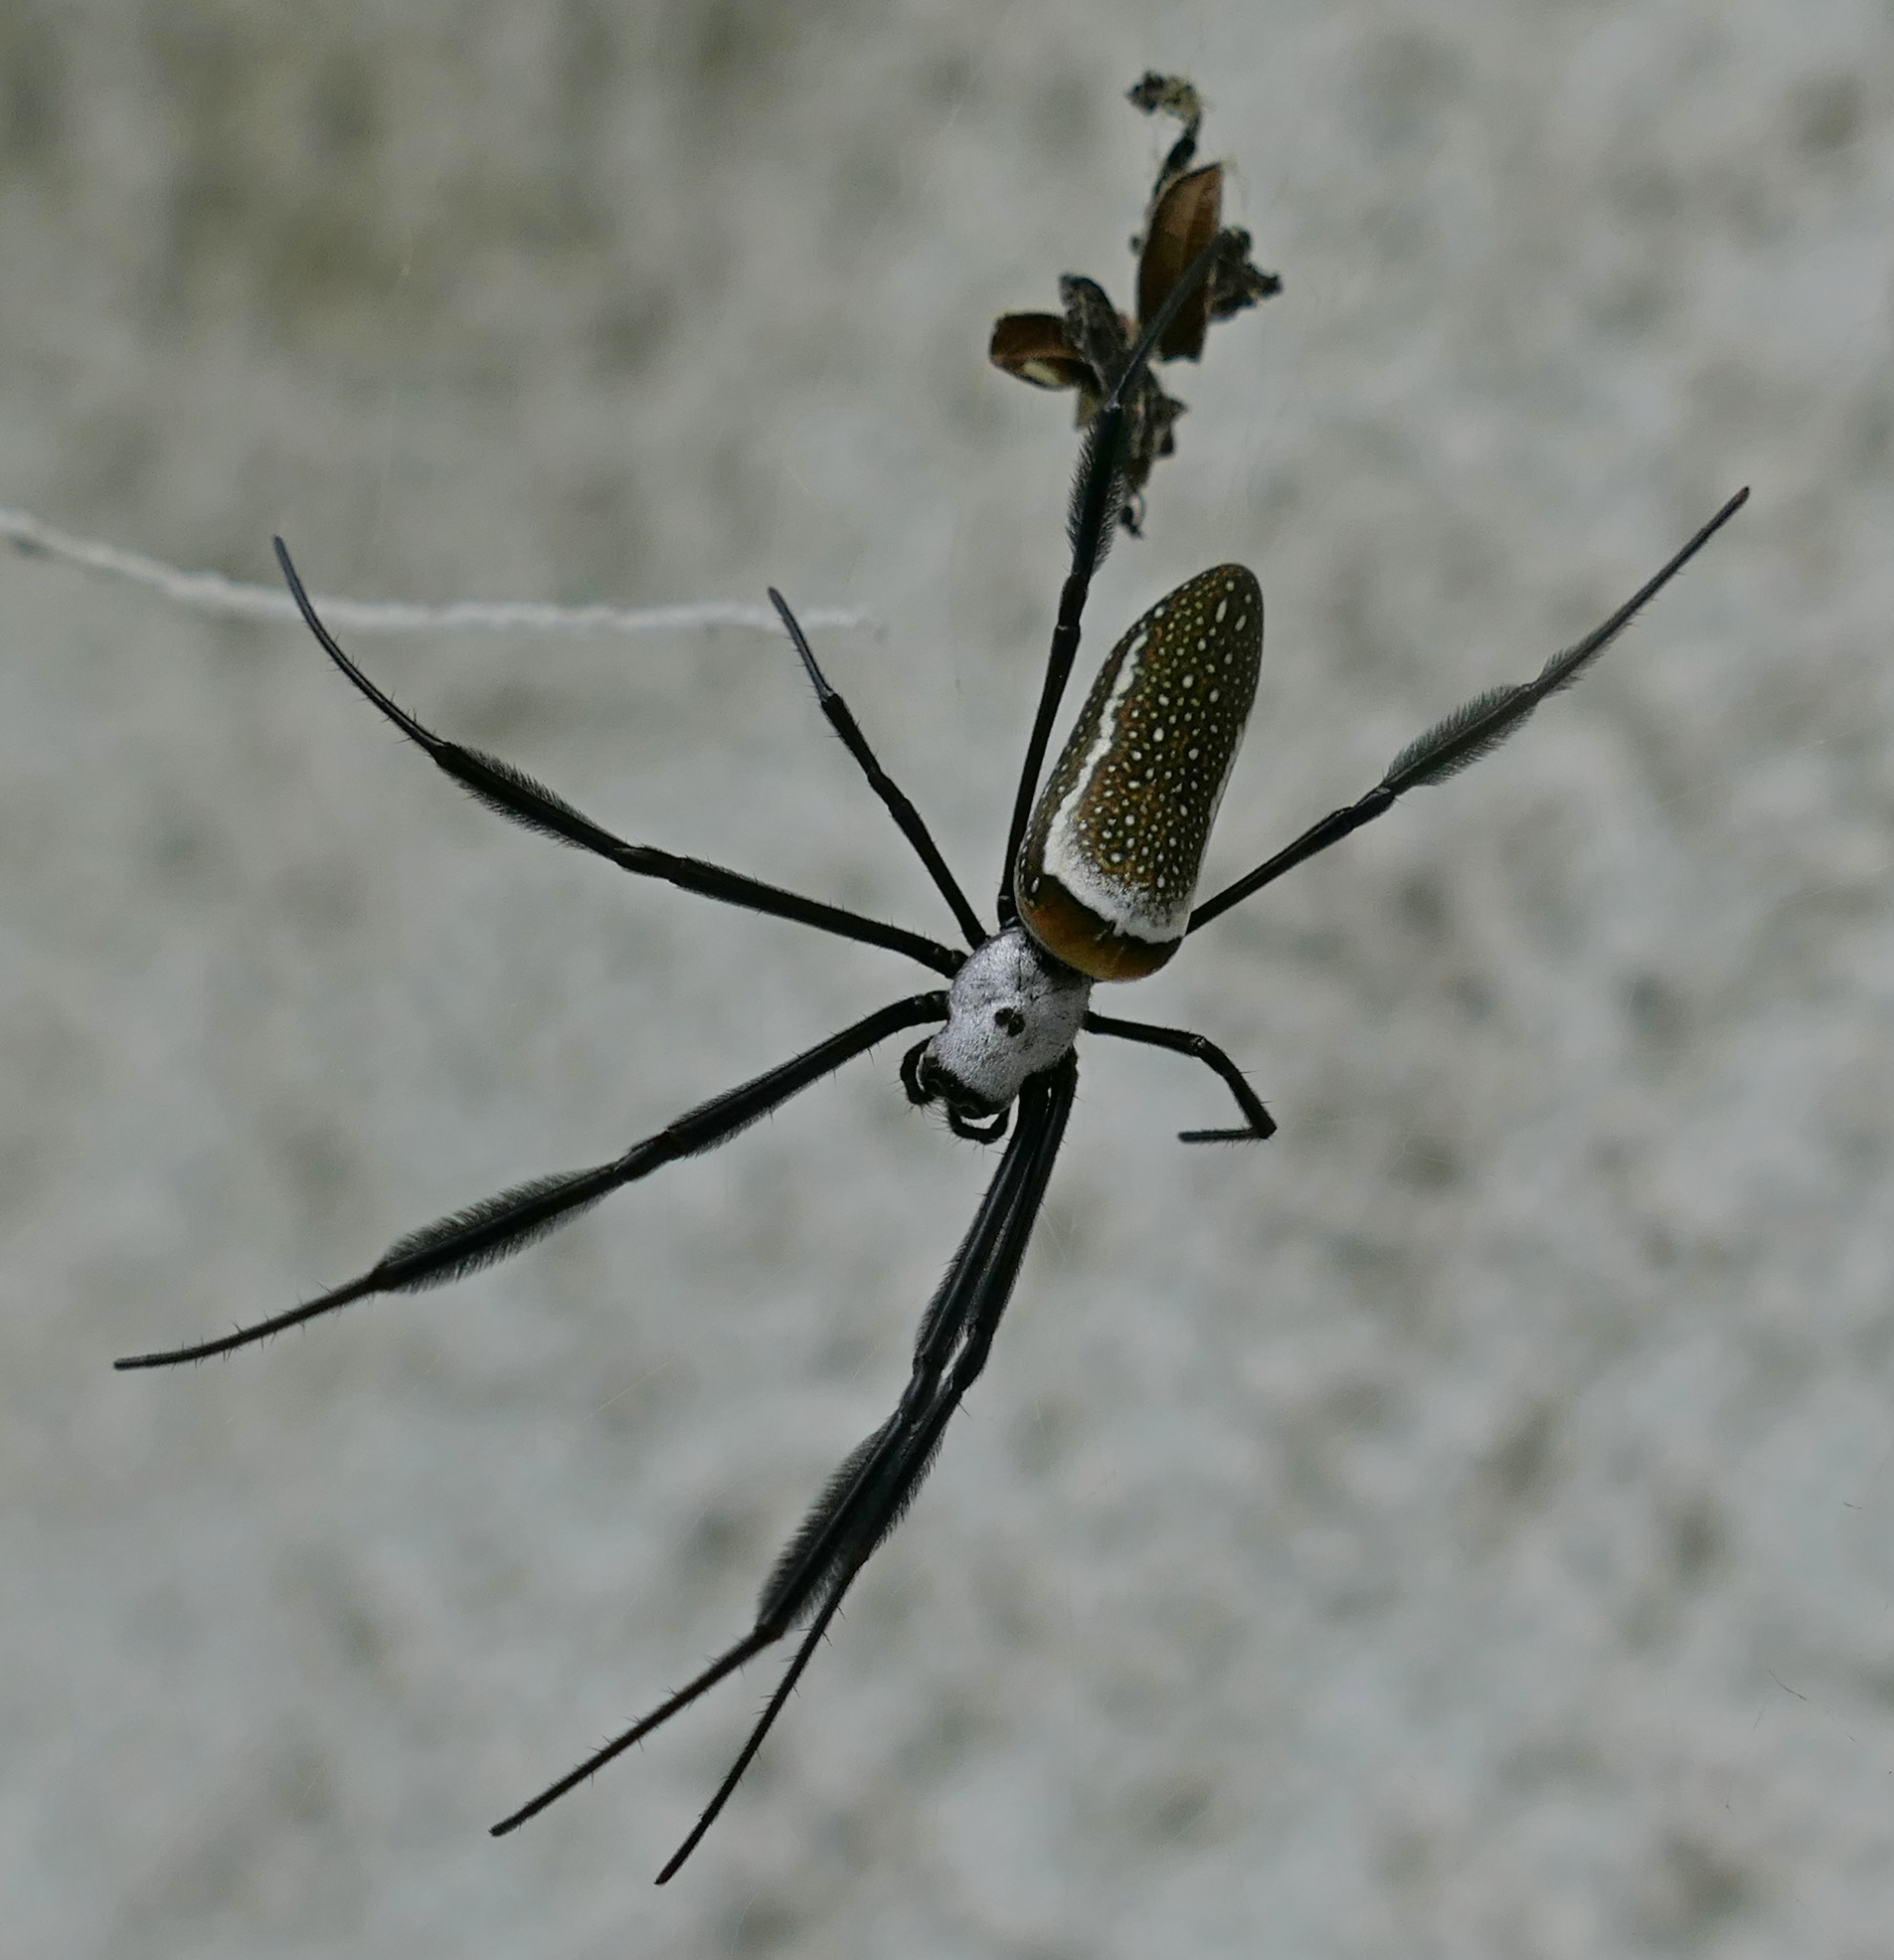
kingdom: Animalia
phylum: Arthropoda
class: Arachnida
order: Araneae
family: Araneidae
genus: Trichonephila
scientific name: Trichonephila clavipes
